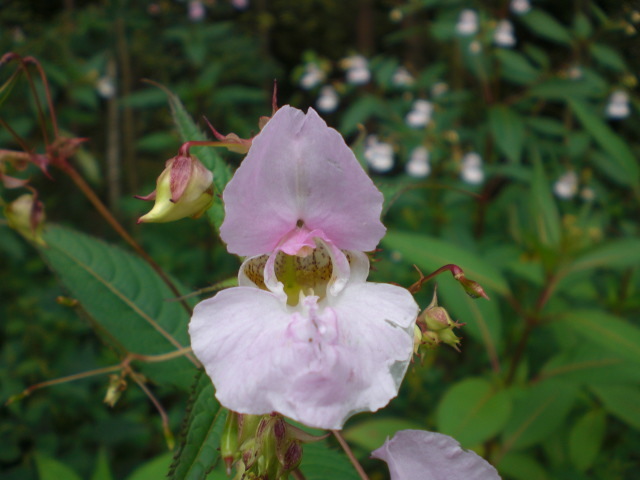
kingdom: Plantae
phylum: Tracheophyta
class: Magnoliopsida
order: Ericales
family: Balsaminaceae
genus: Impatiens
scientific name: Impatiens glandulifera
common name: Himalayan balsam
